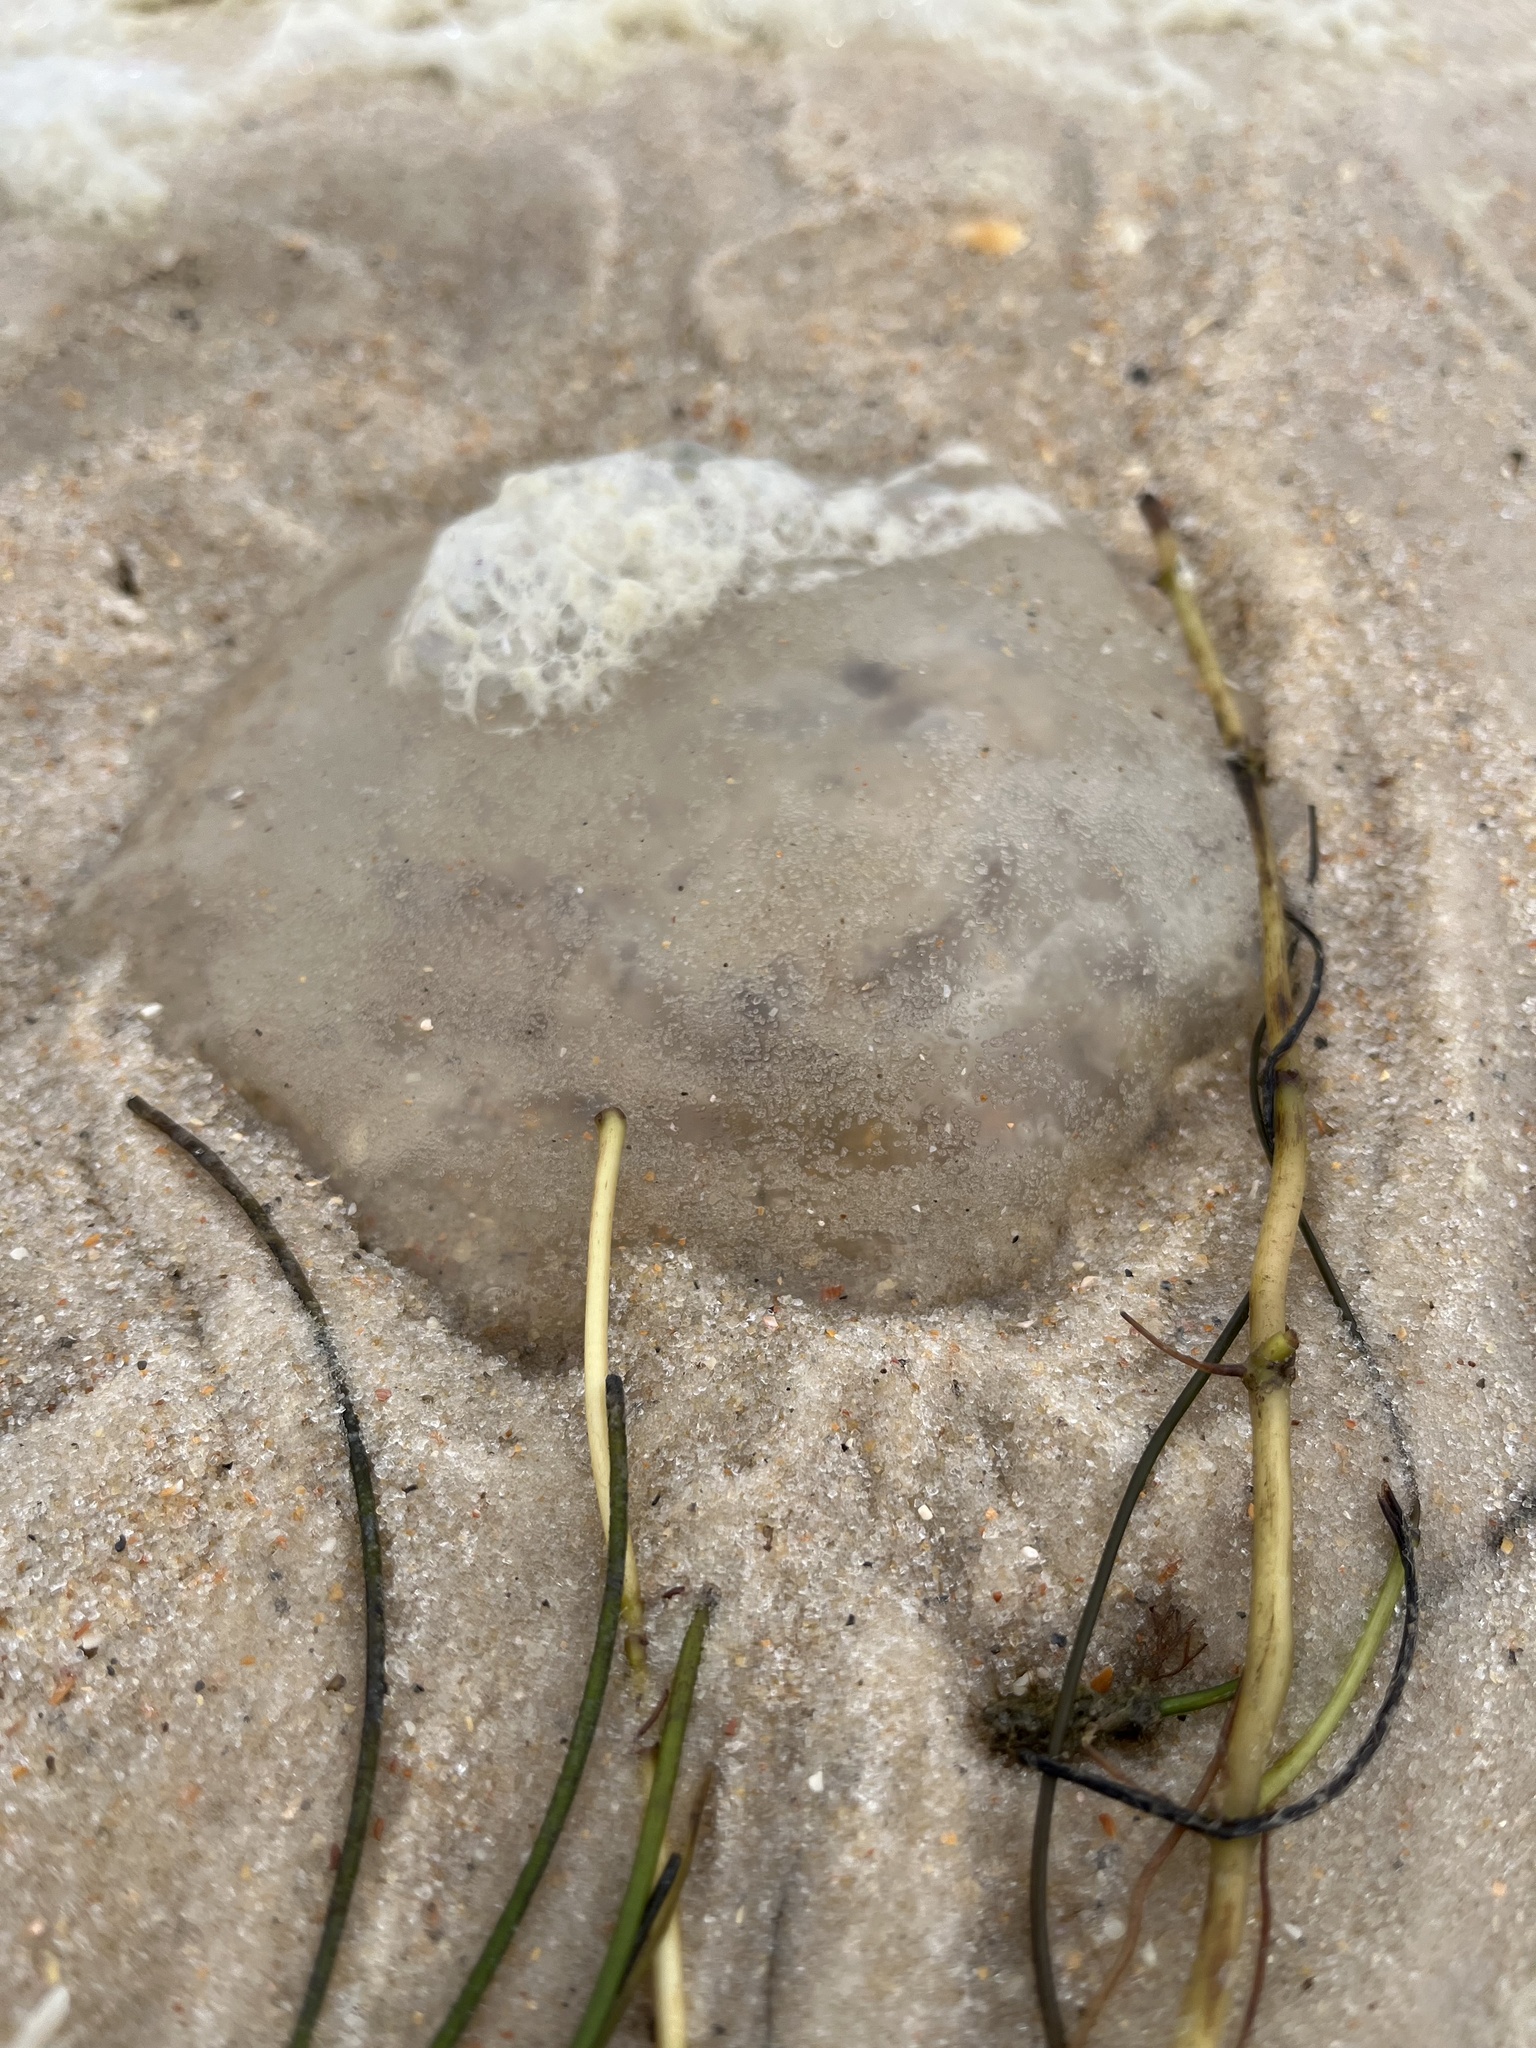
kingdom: Animalia
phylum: Cnidaria
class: Scyphozoa
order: Rhizostomeae
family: Rhizostomatidae
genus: Rhopilema
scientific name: Rhopilema verrilli
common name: Mushroom cap jellyfish
